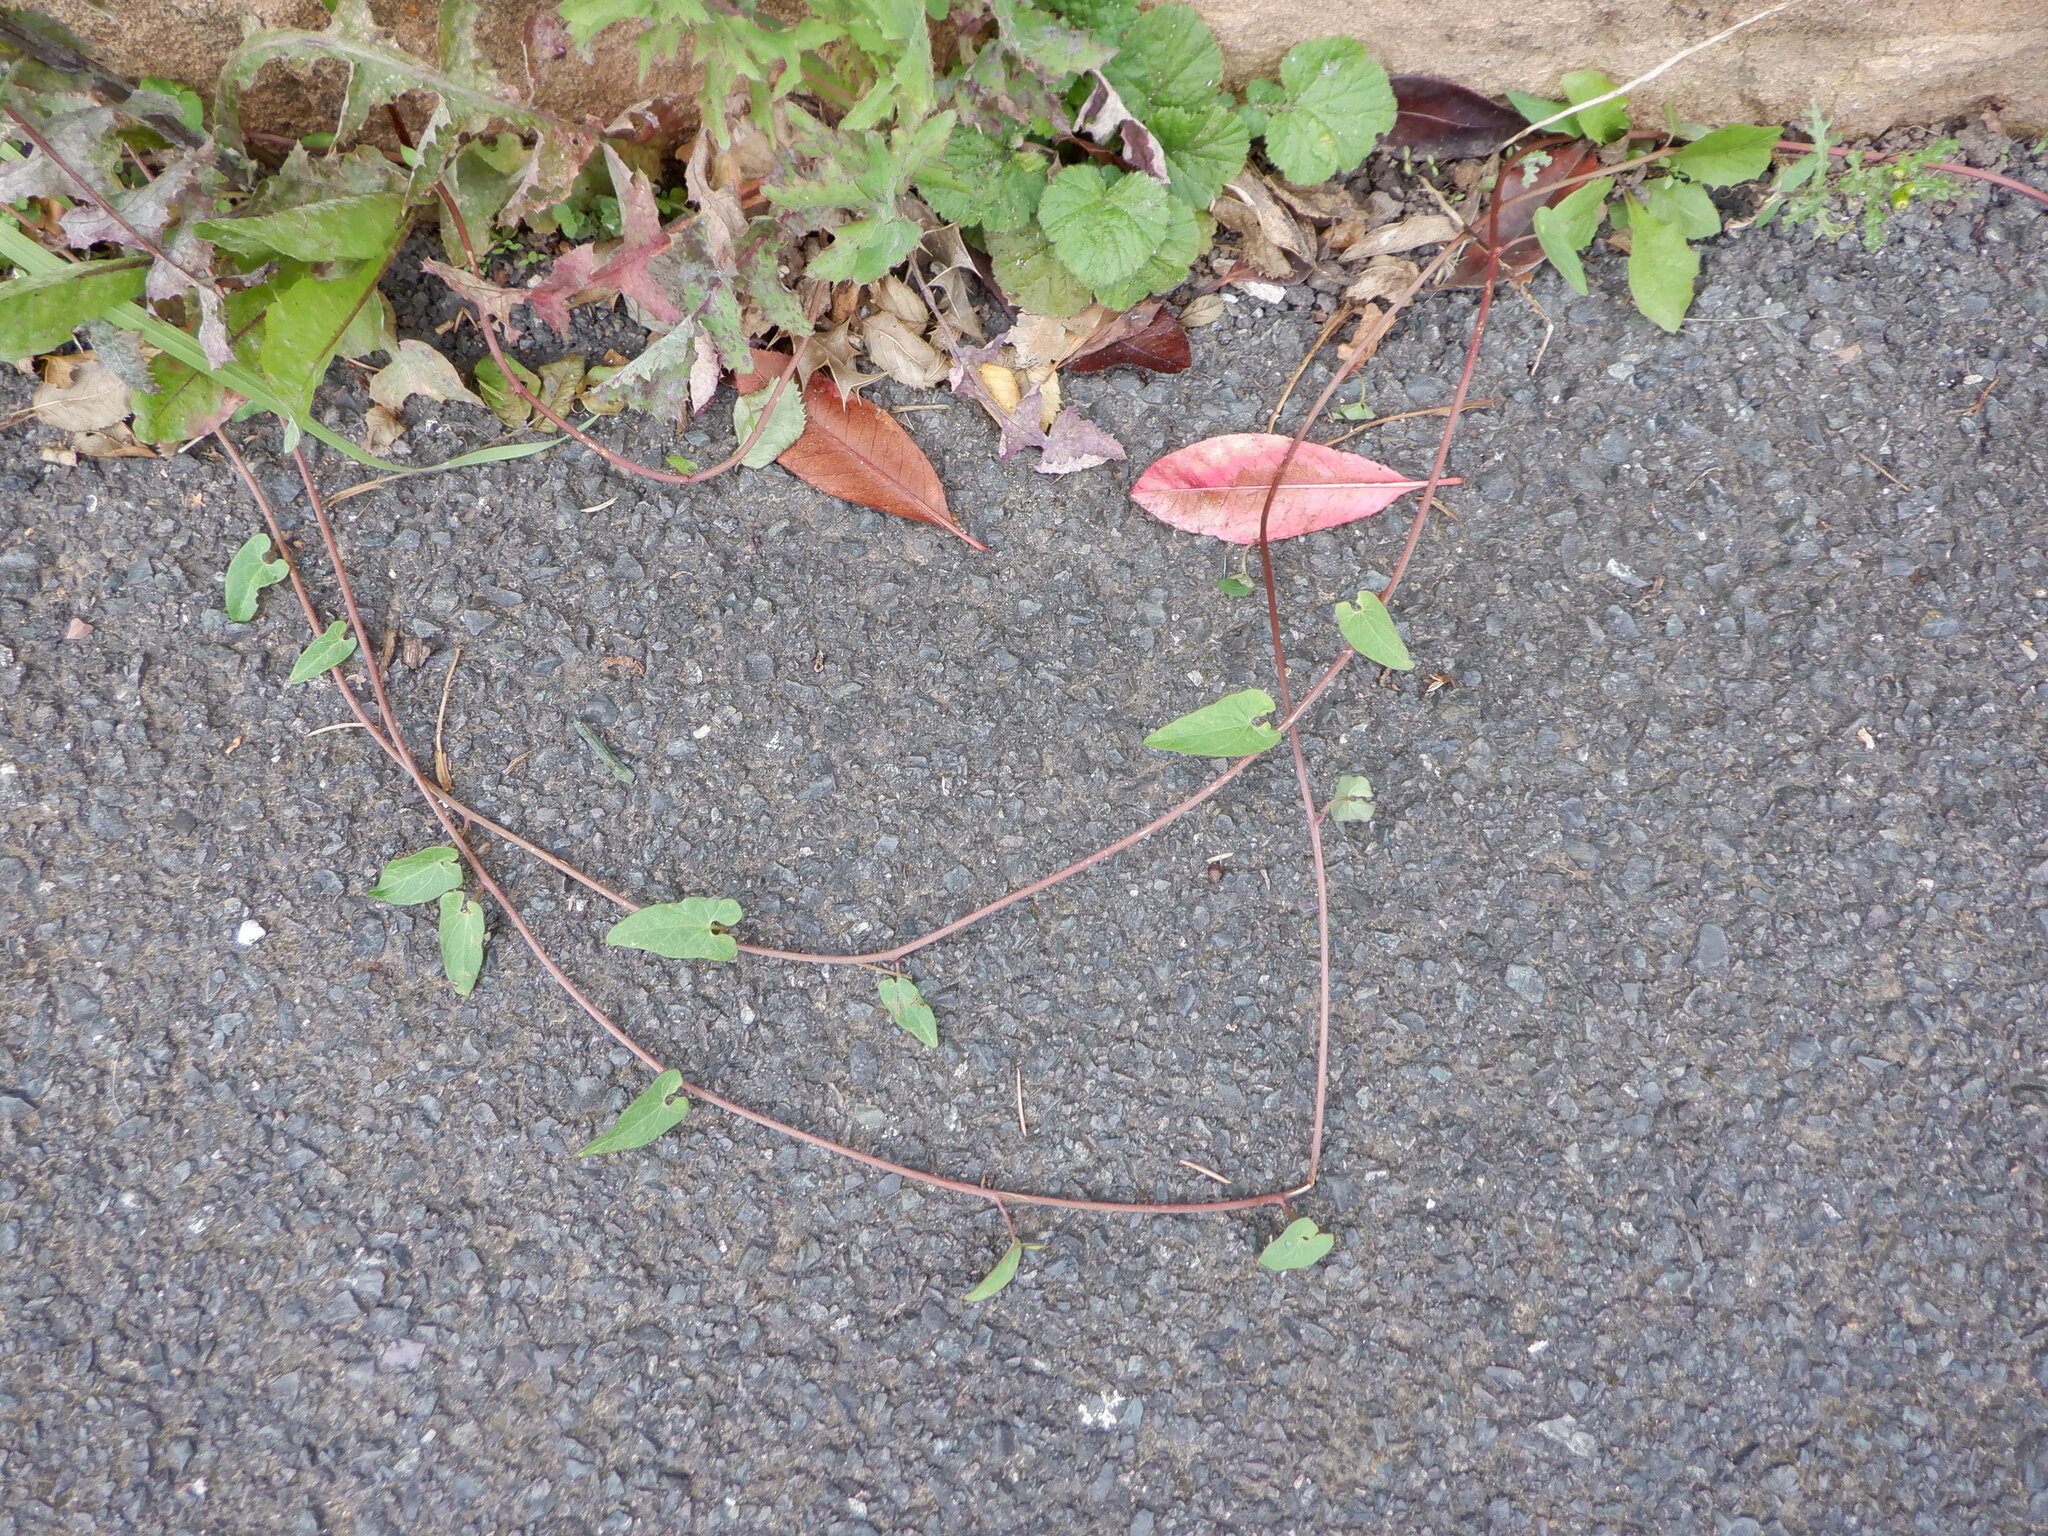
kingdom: Plantae
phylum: Tracheophyta
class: Magnoliopsida
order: Caryophyllales
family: Polygonaceae
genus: Fallopia
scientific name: Fallopia convolvulus
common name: Black bindweed
